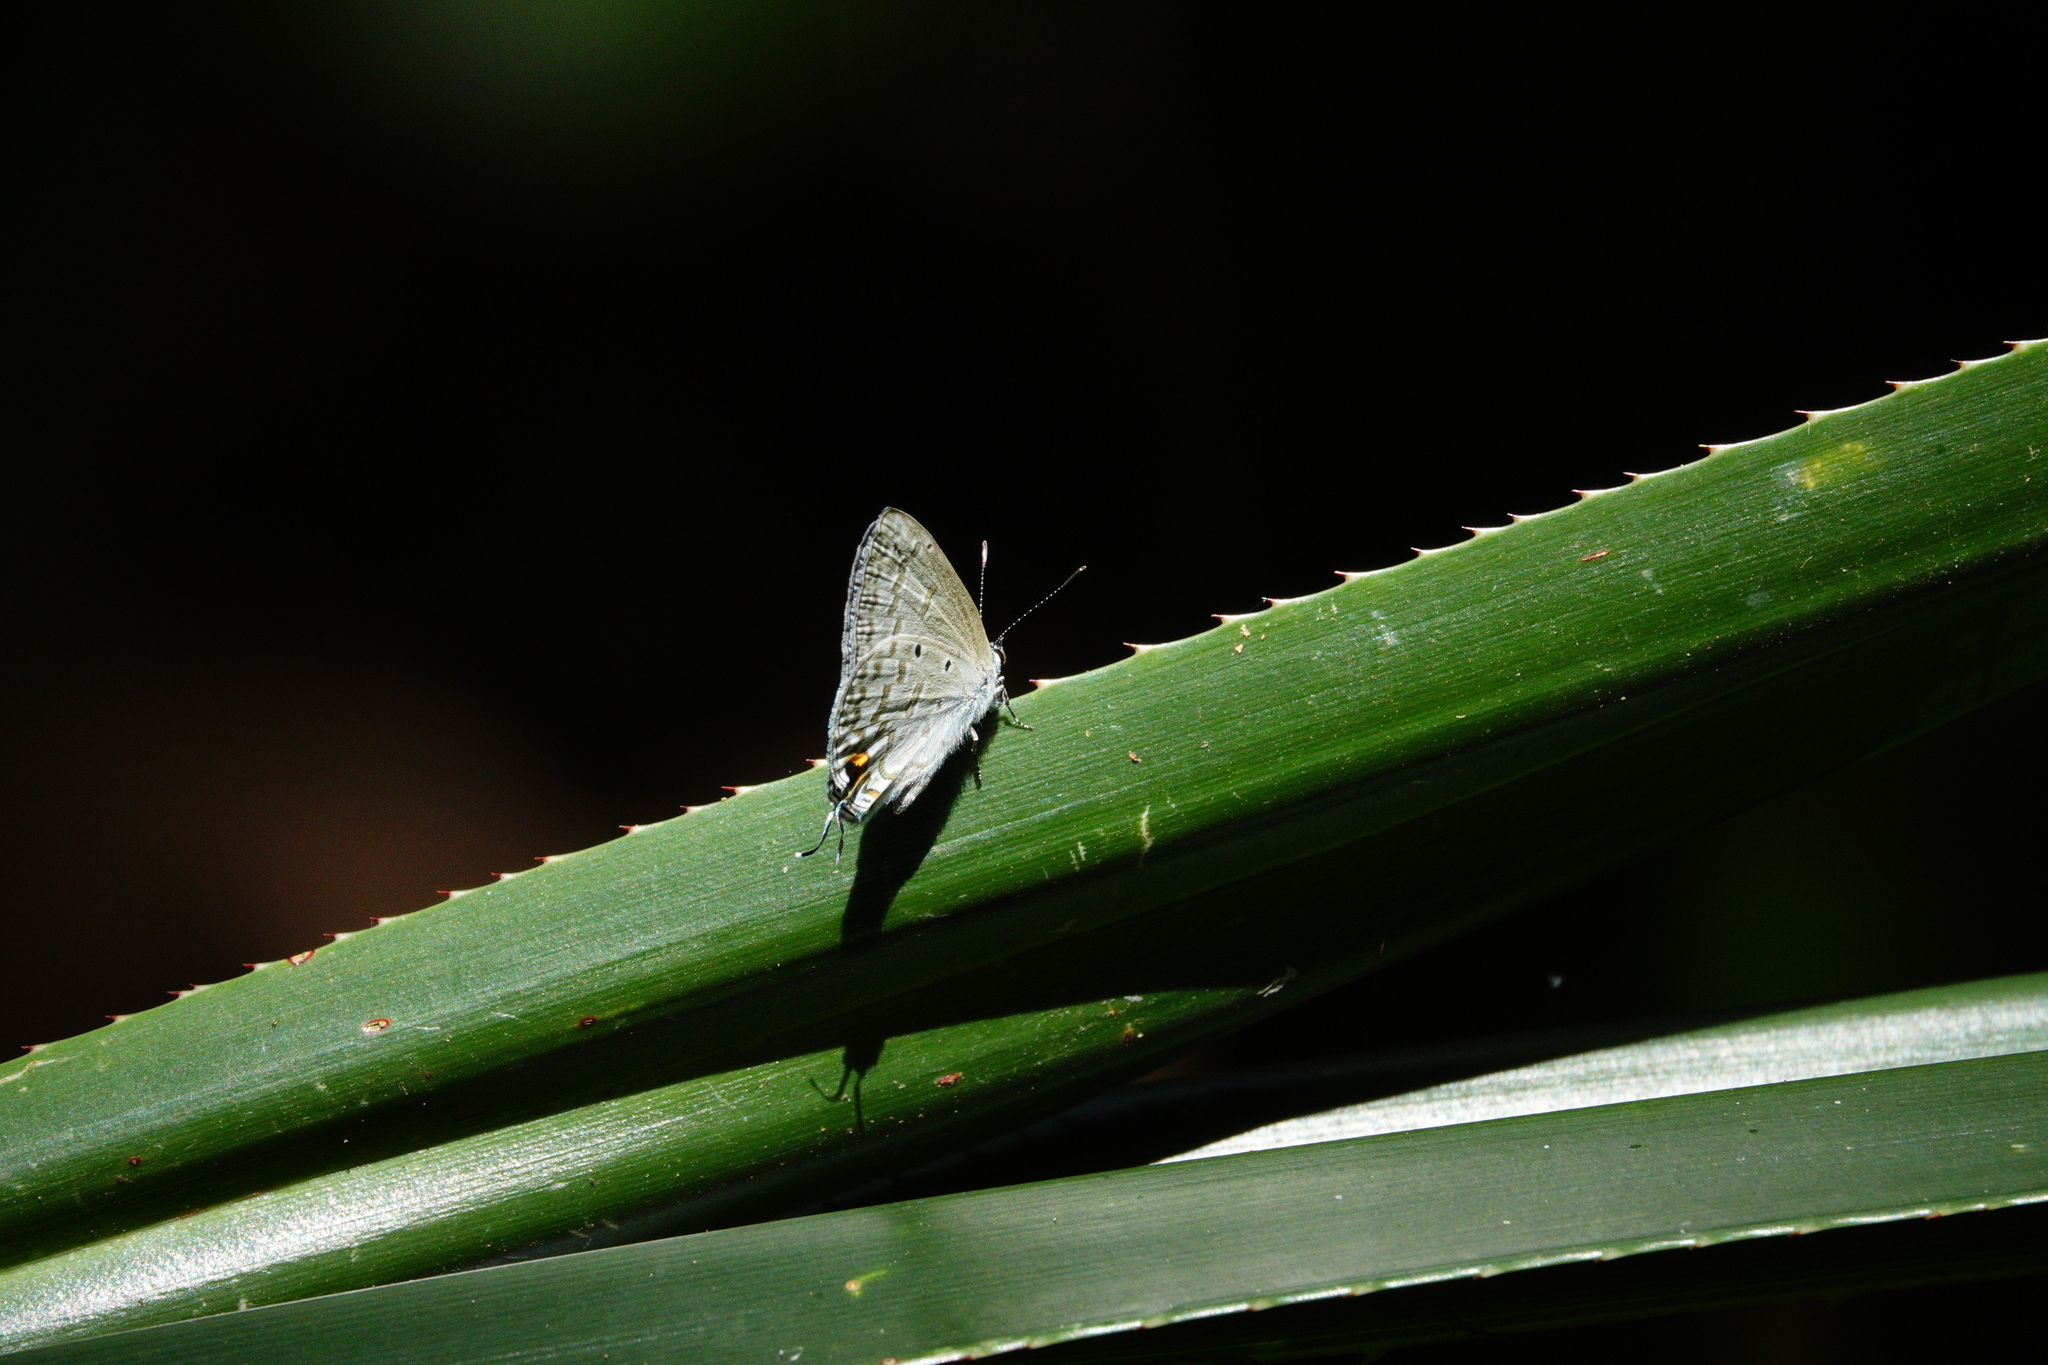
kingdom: Animalia
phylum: Arthropoda
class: Insecta
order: Lepidoptera
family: Lycaenidae
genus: Catochrysops
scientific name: Catochrysops panormus
